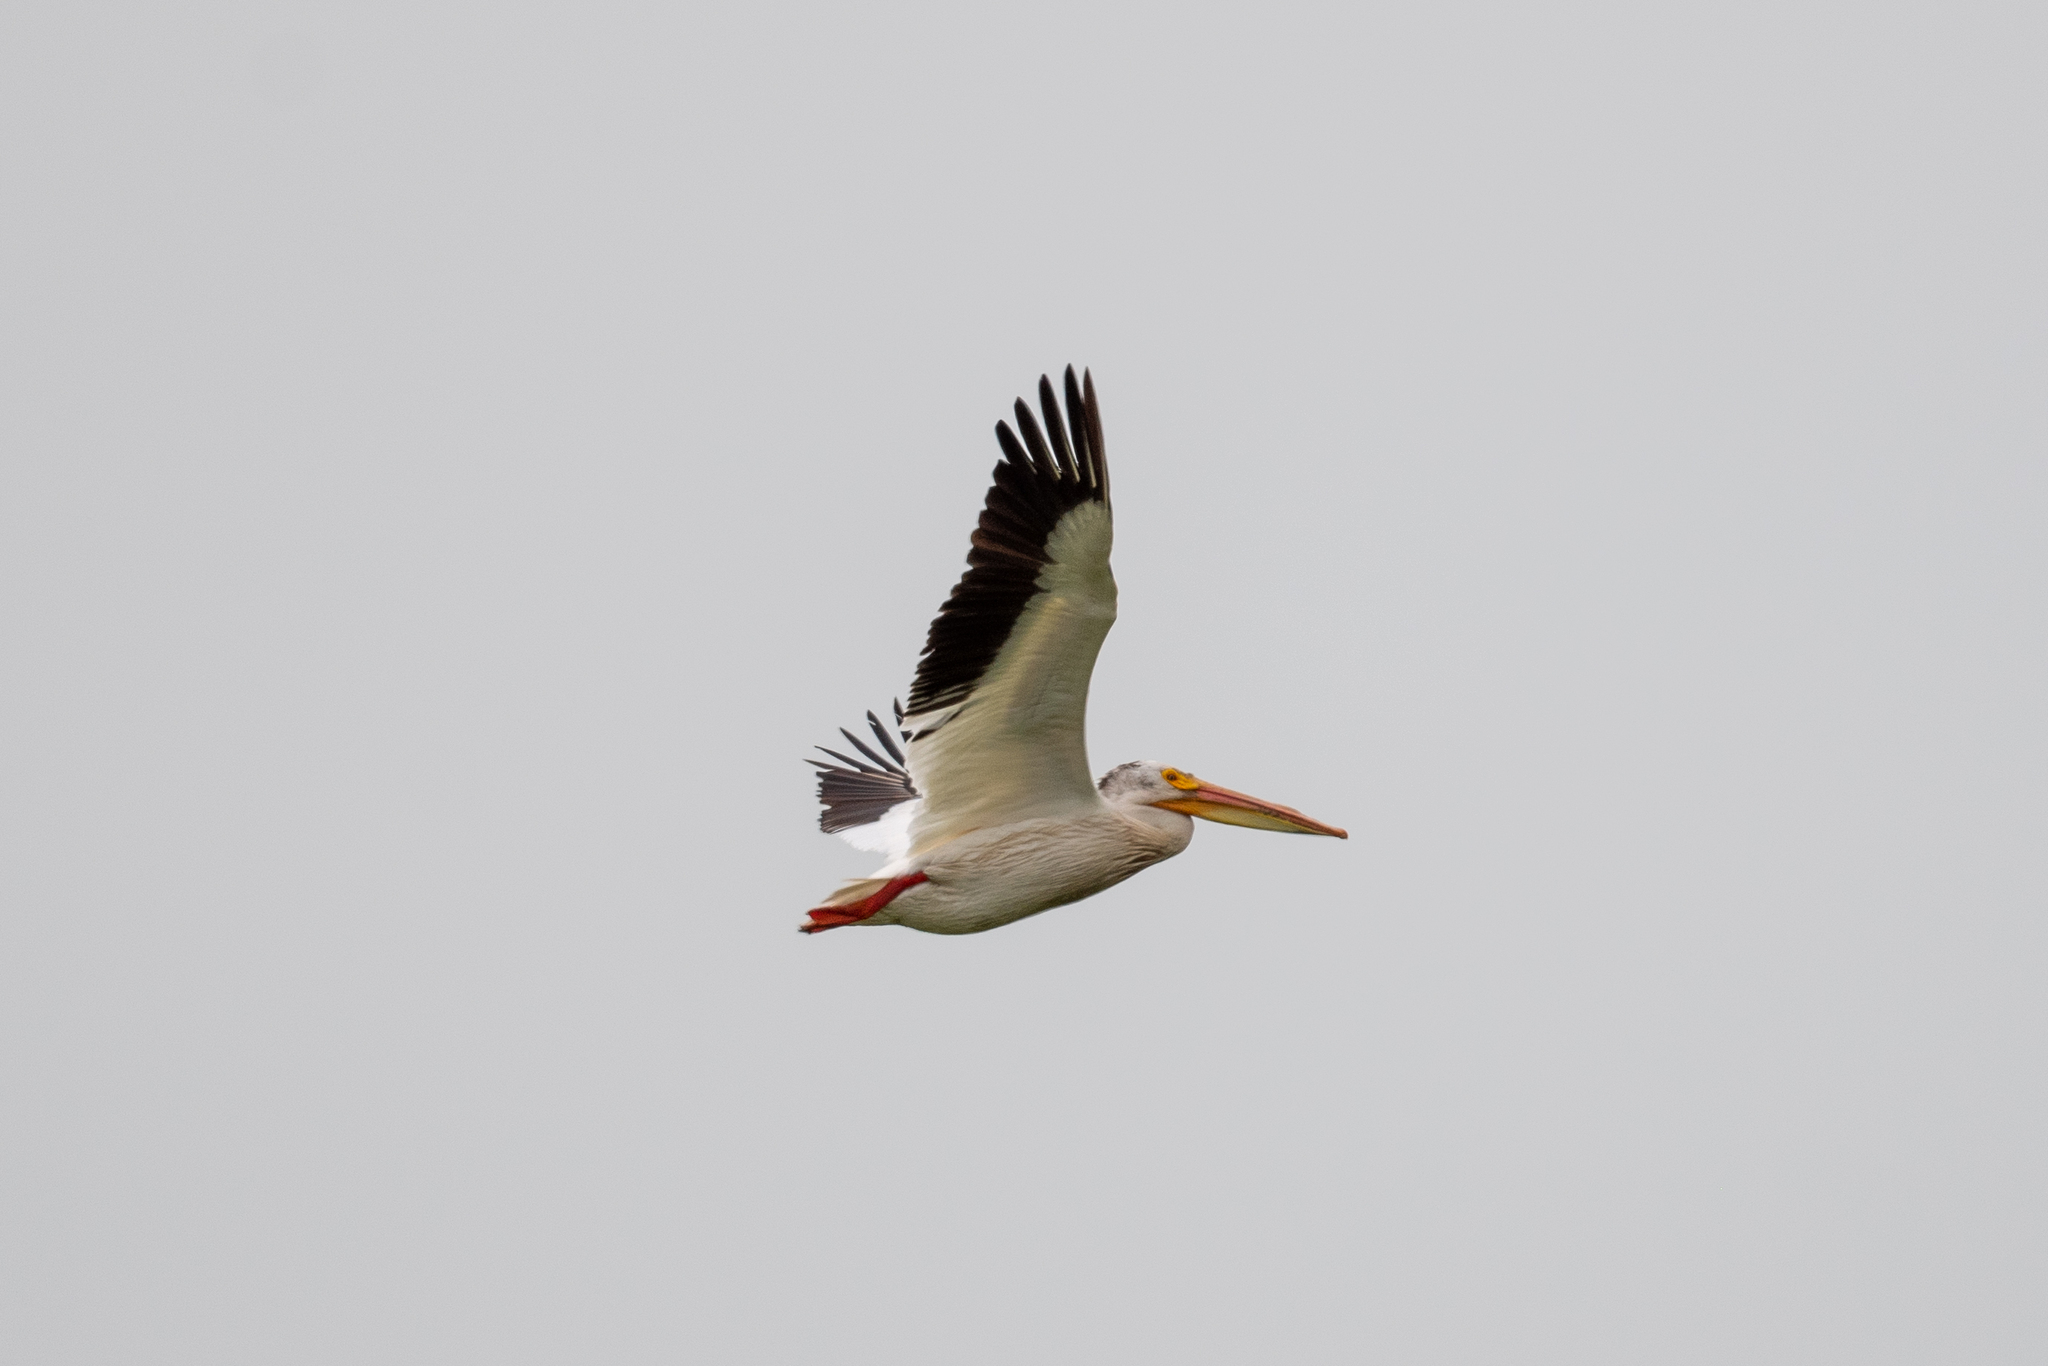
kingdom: Animalia
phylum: Chordata
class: Aves
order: Pelecaniformes
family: Pelecanidae
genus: Pelecanus
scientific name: Pelecanus erythrorhynchos
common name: American white pelican
